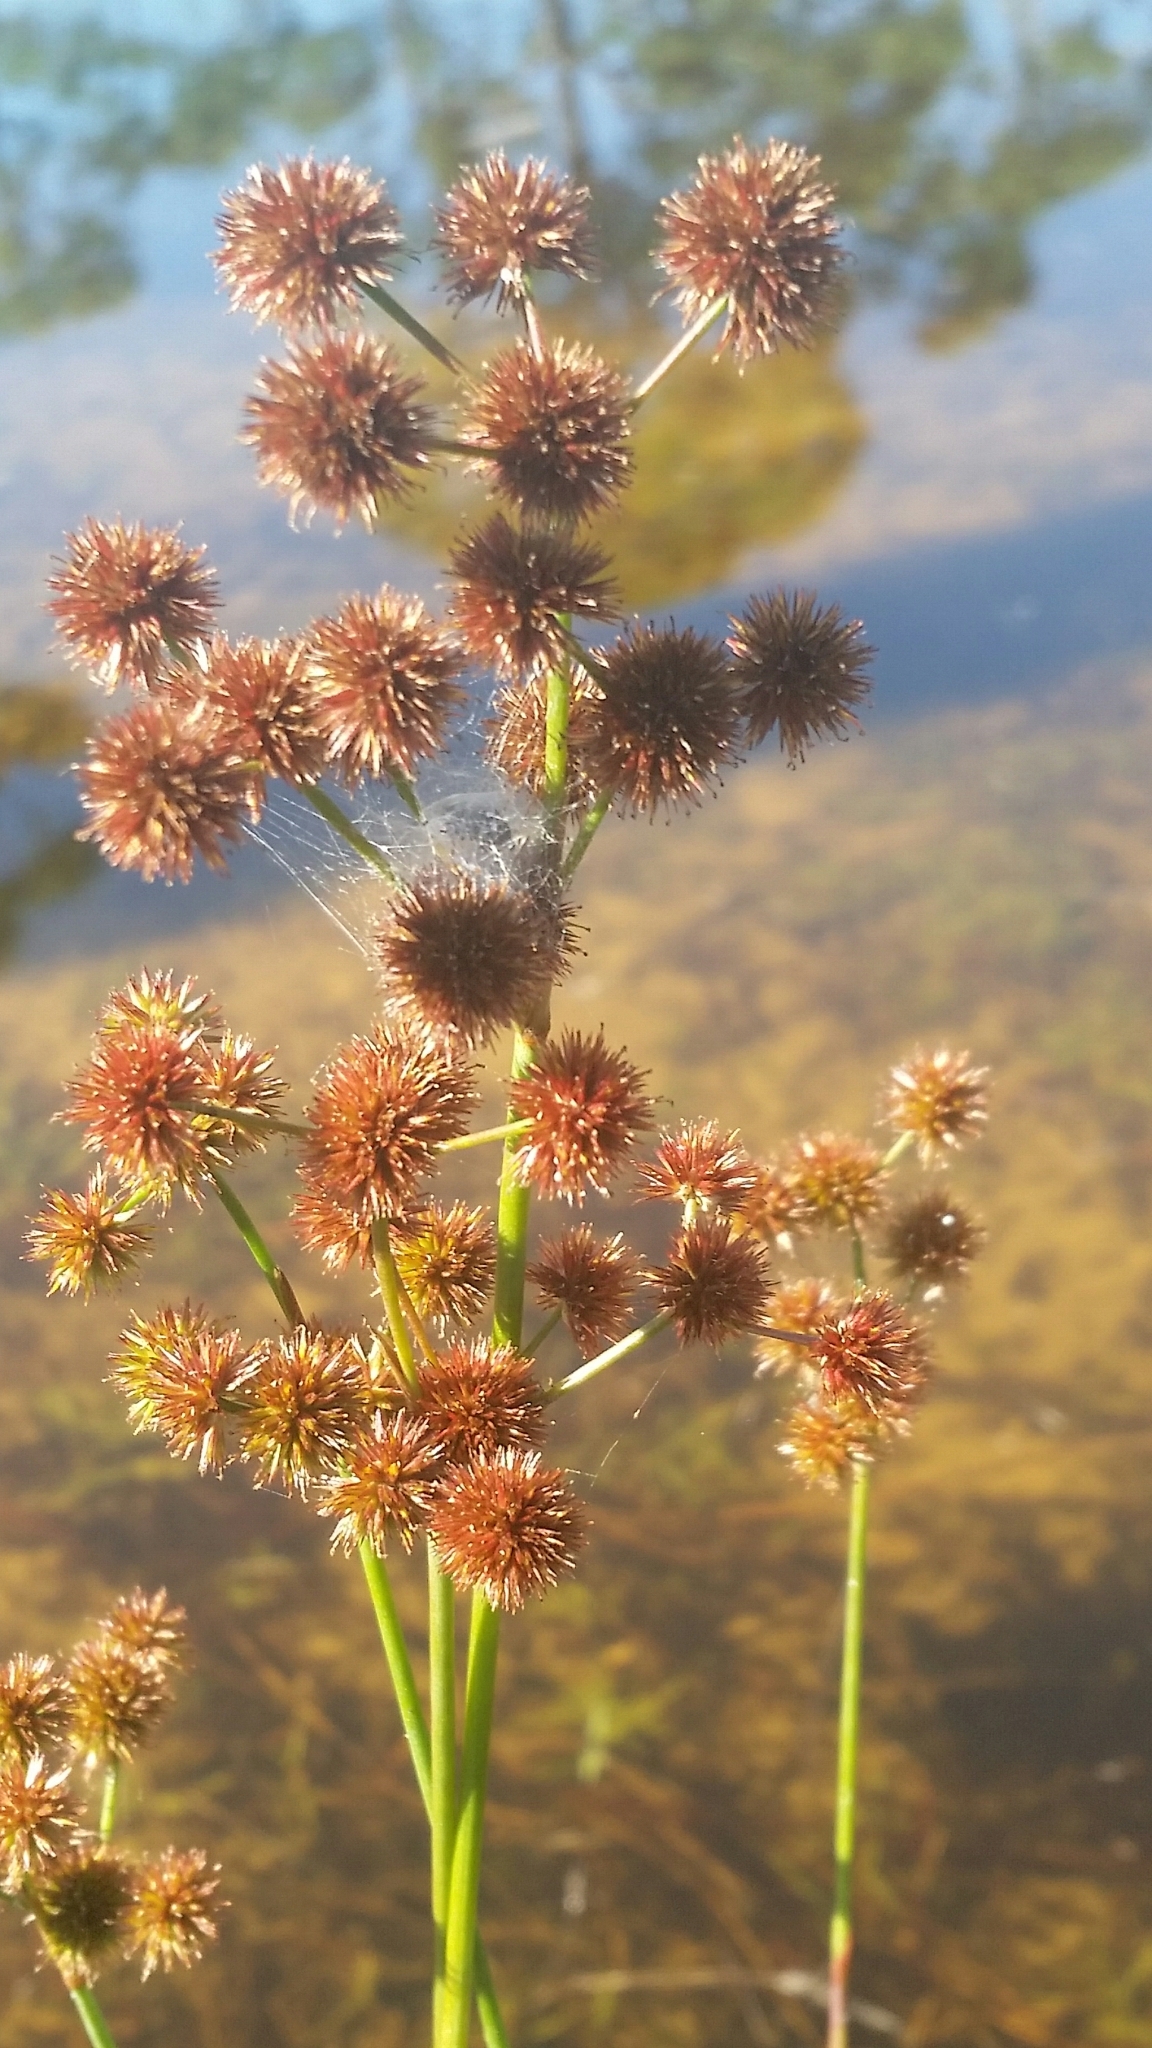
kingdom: Plantae
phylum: Tracheophyta
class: Liliopsida
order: Poales
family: Juncaceae
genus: Juncus
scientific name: Juncus megacephalus
